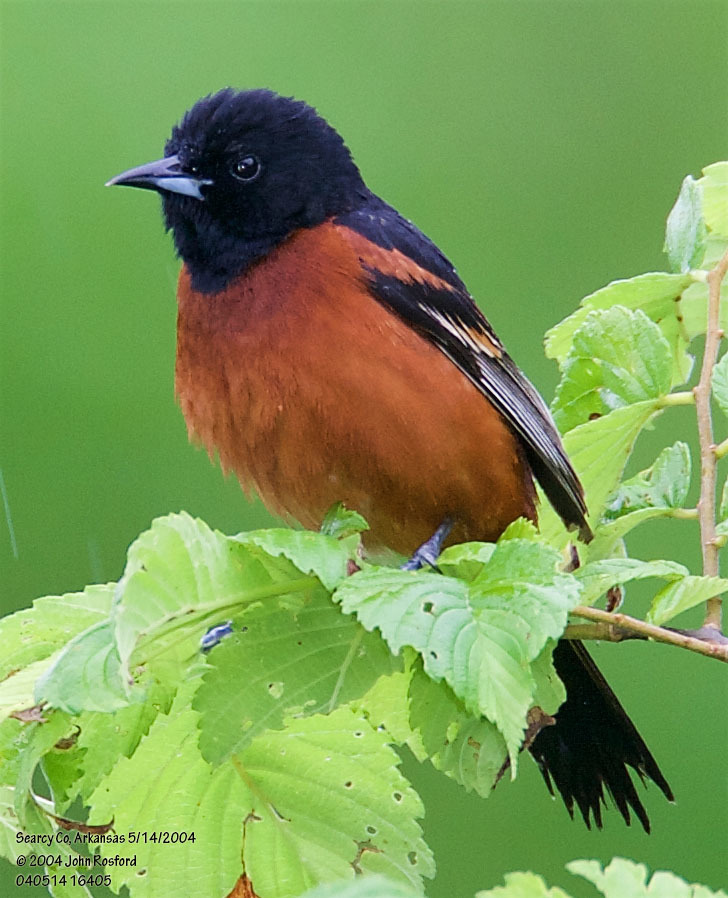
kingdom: Animalia
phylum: Chordata
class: Aves
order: Passeriformes
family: Icteridae
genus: Icterus
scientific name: Icterus spurius
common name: Orchard oriole
